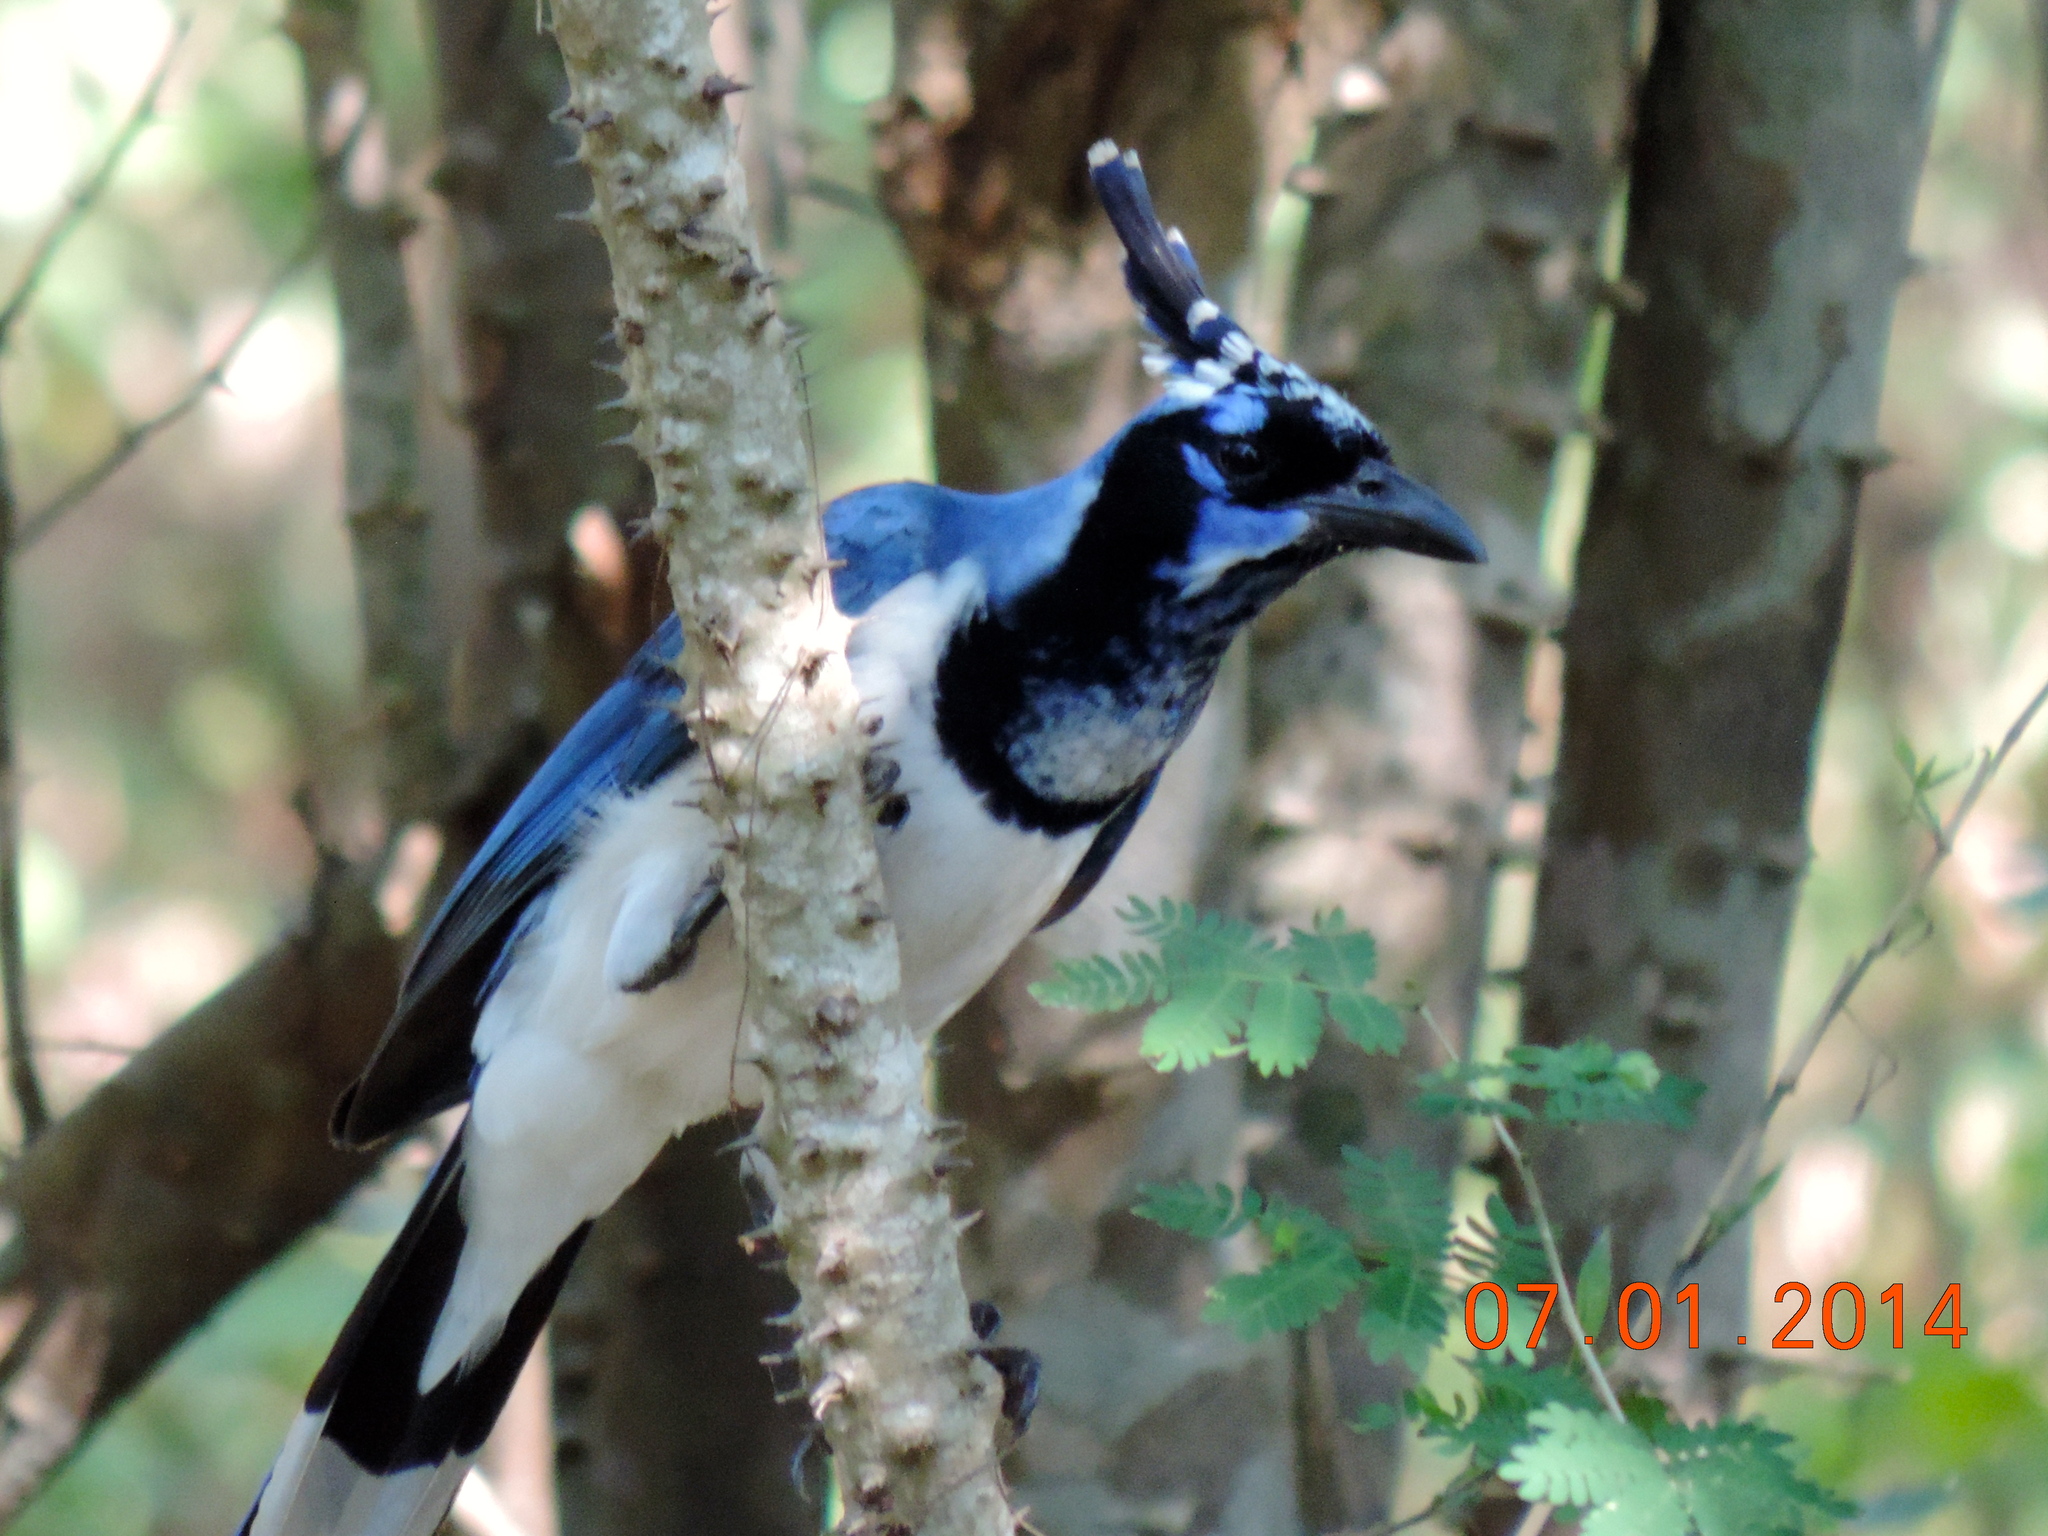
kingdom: Animalia
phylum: Chordata
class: Aves
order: Passeriformes
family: Corvidae
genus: Calocitta
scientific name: Calocitta colliei
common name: Black-throated magpie-jay
